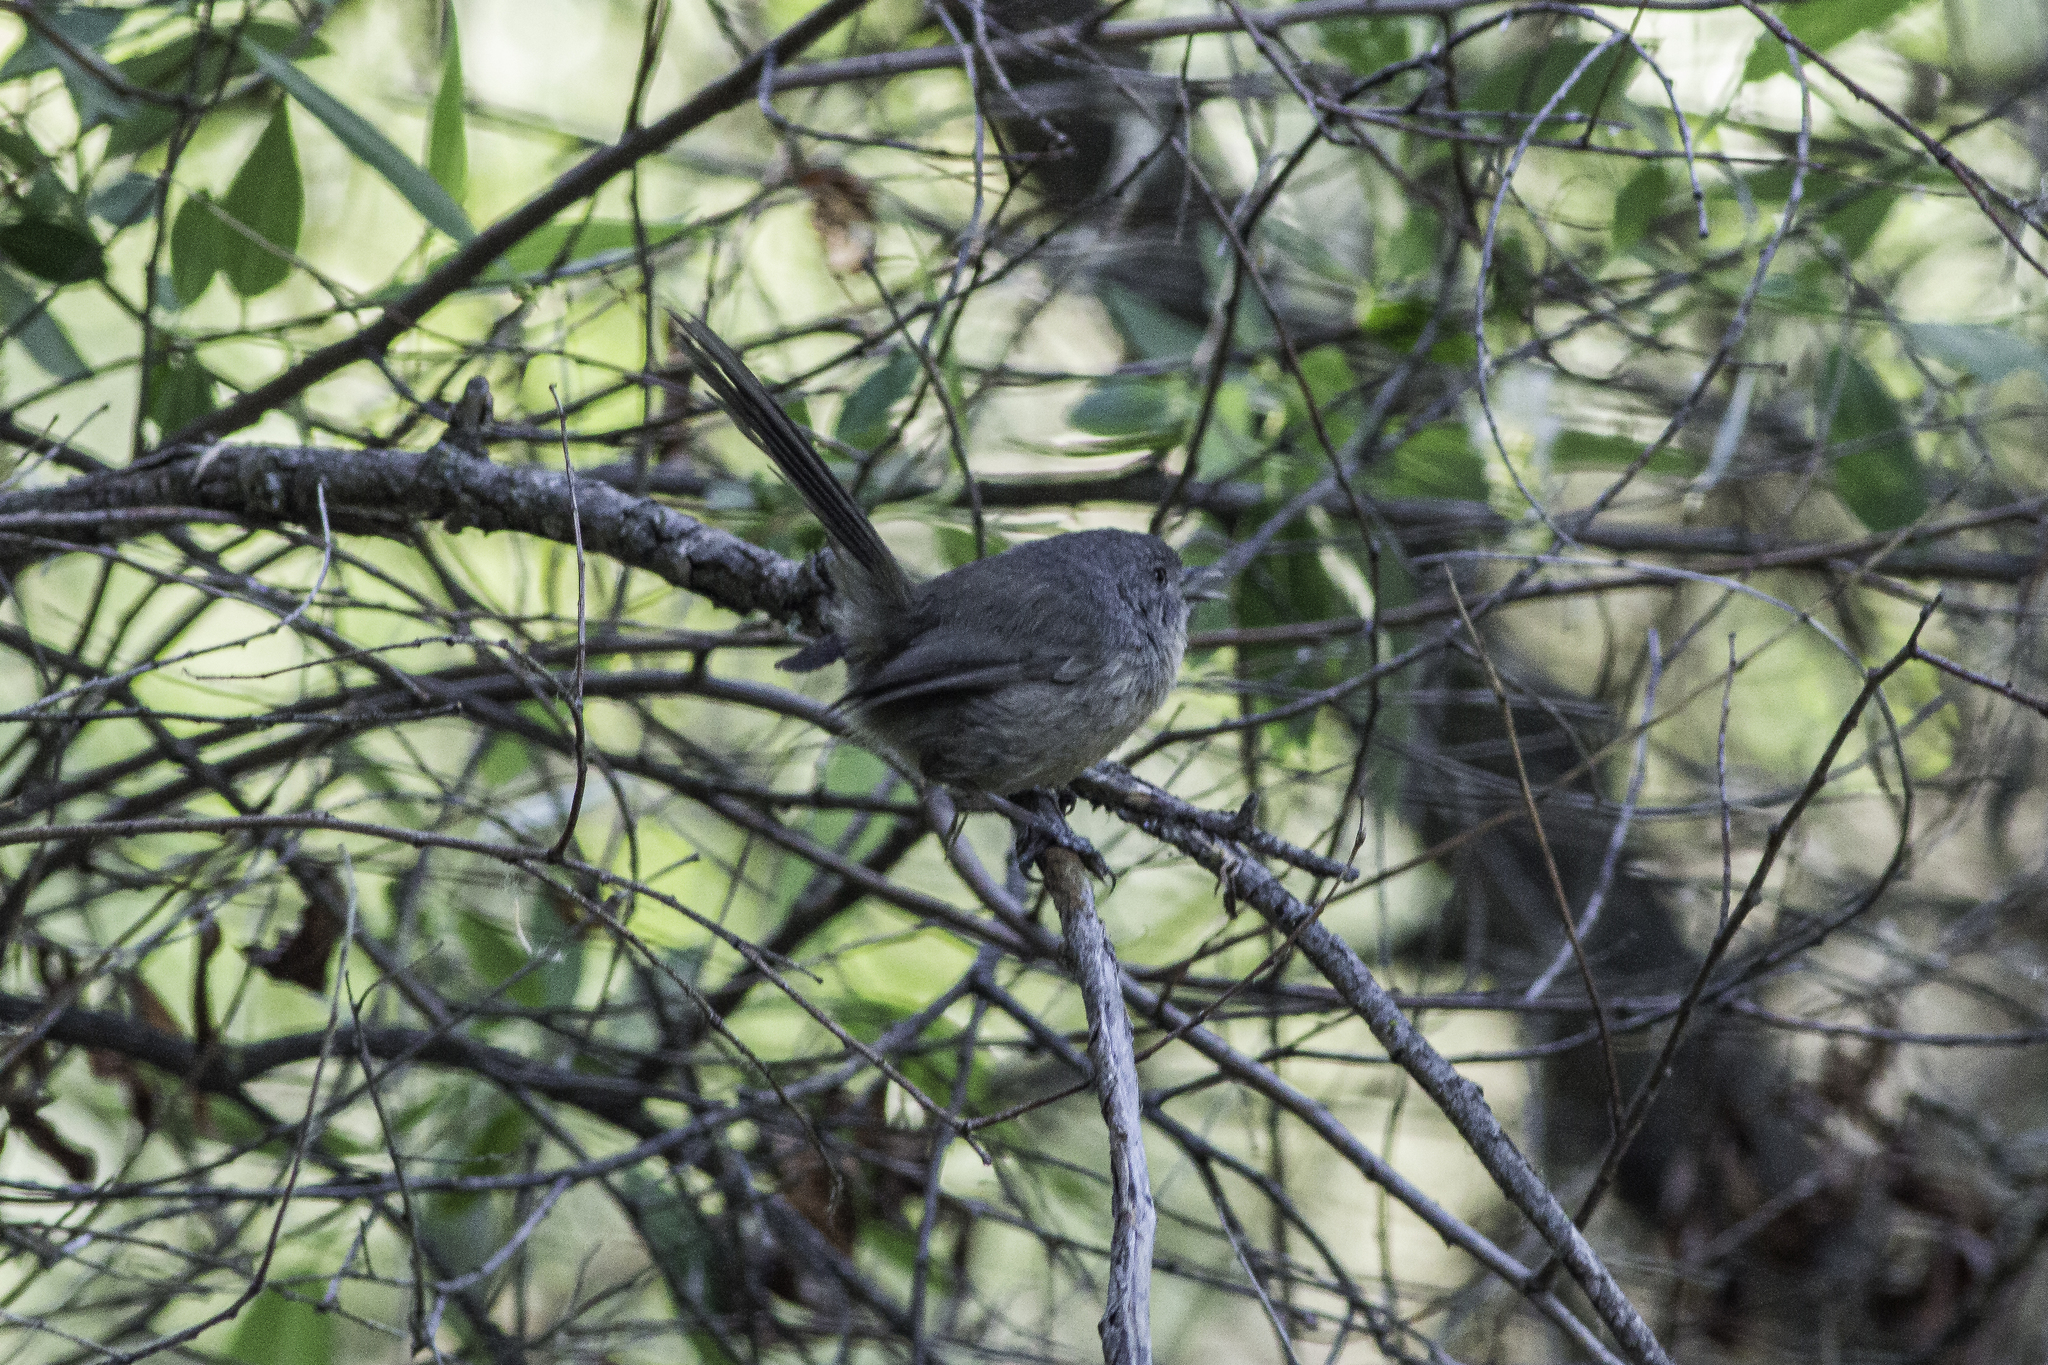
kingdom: Animalia
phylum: Chordata
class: Aves
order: Passeriformes
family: Sylviidae
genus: Chamaea
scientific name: Chamaea fasciata
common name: Wrentit
